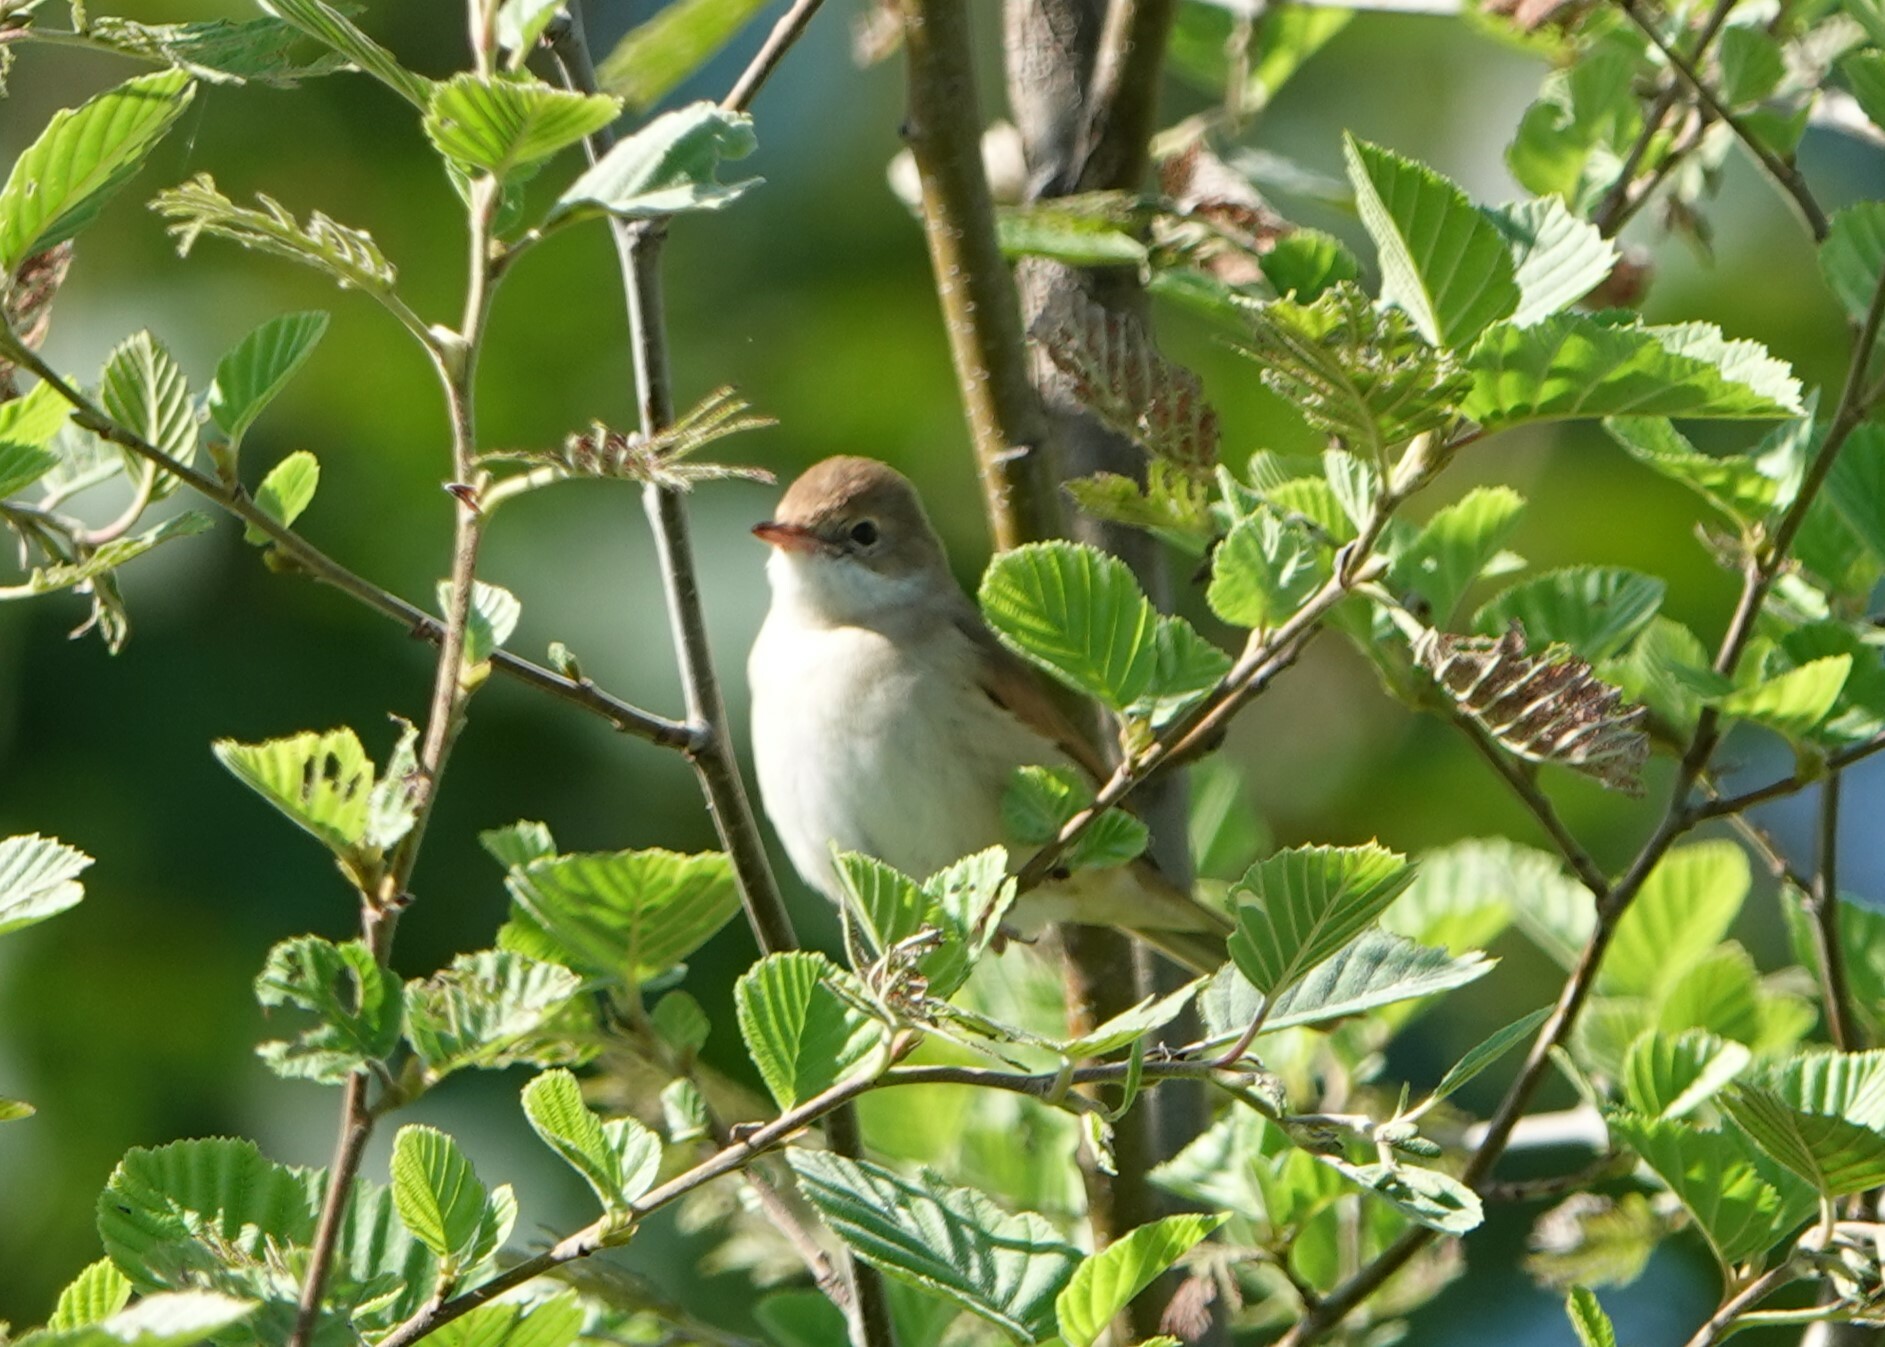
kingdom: Animalia
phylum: Chordata
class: Aves
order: Passeriformes
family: Sylviidae
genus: Sylvia
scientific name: Sylvia communis
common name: Common whitethroat
